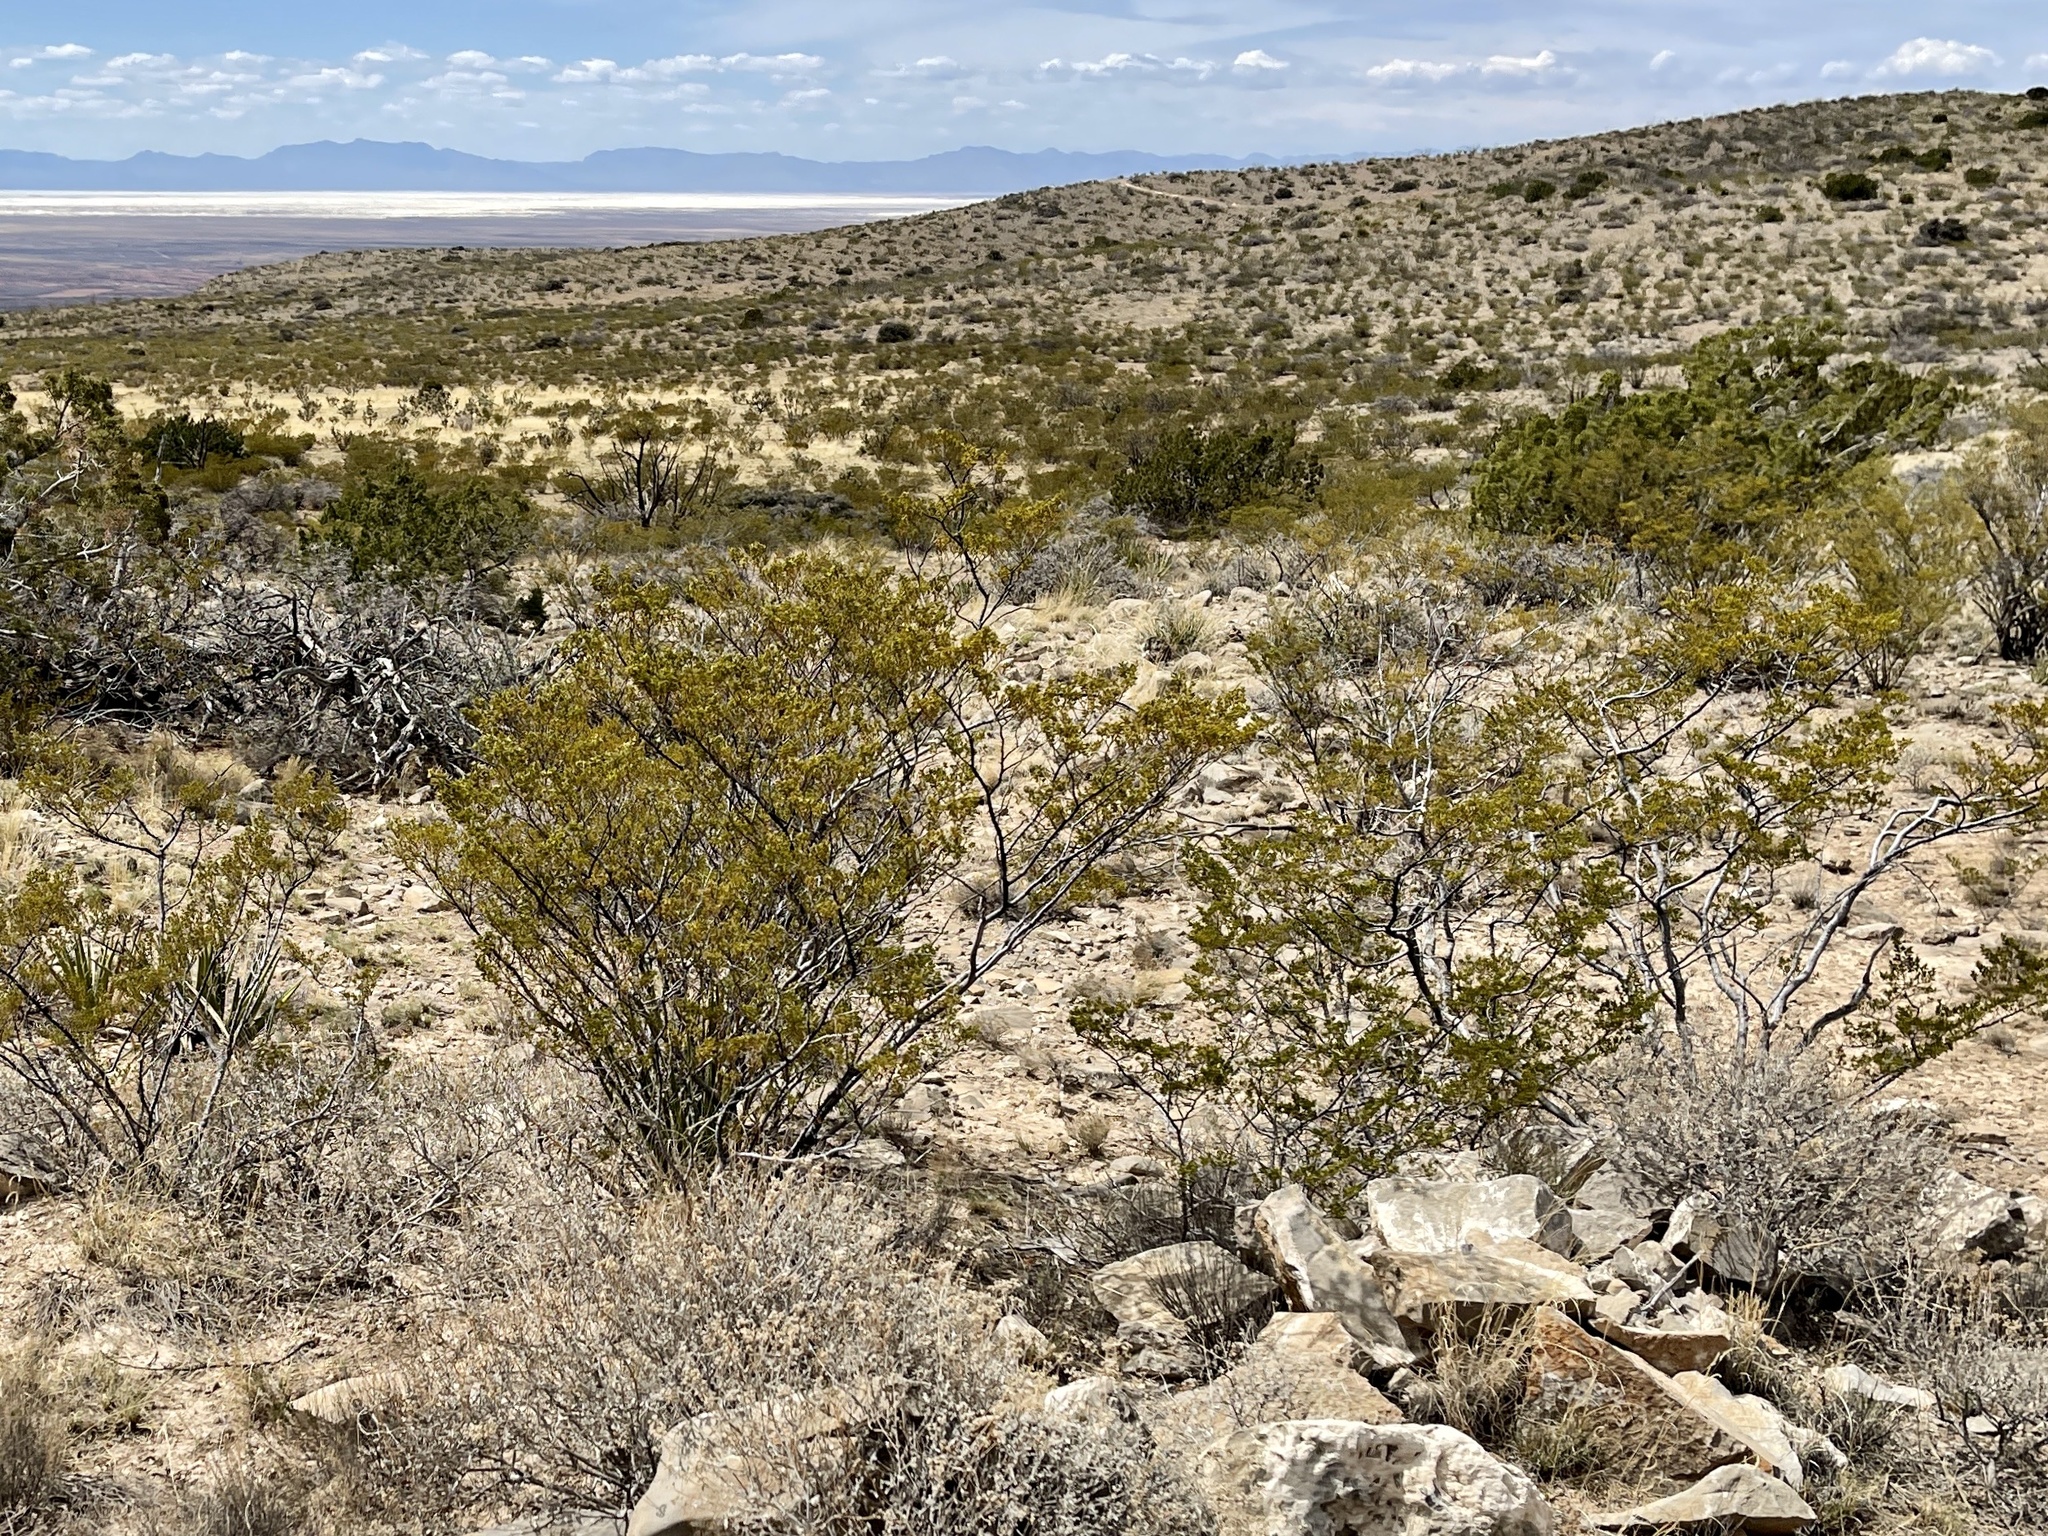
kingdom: Plantae
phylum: Tracheophyta
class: Magnoliopsida
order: Zygophyllales
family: Zygophyllaceae
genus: Larrea
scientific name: Larrea tridentata
